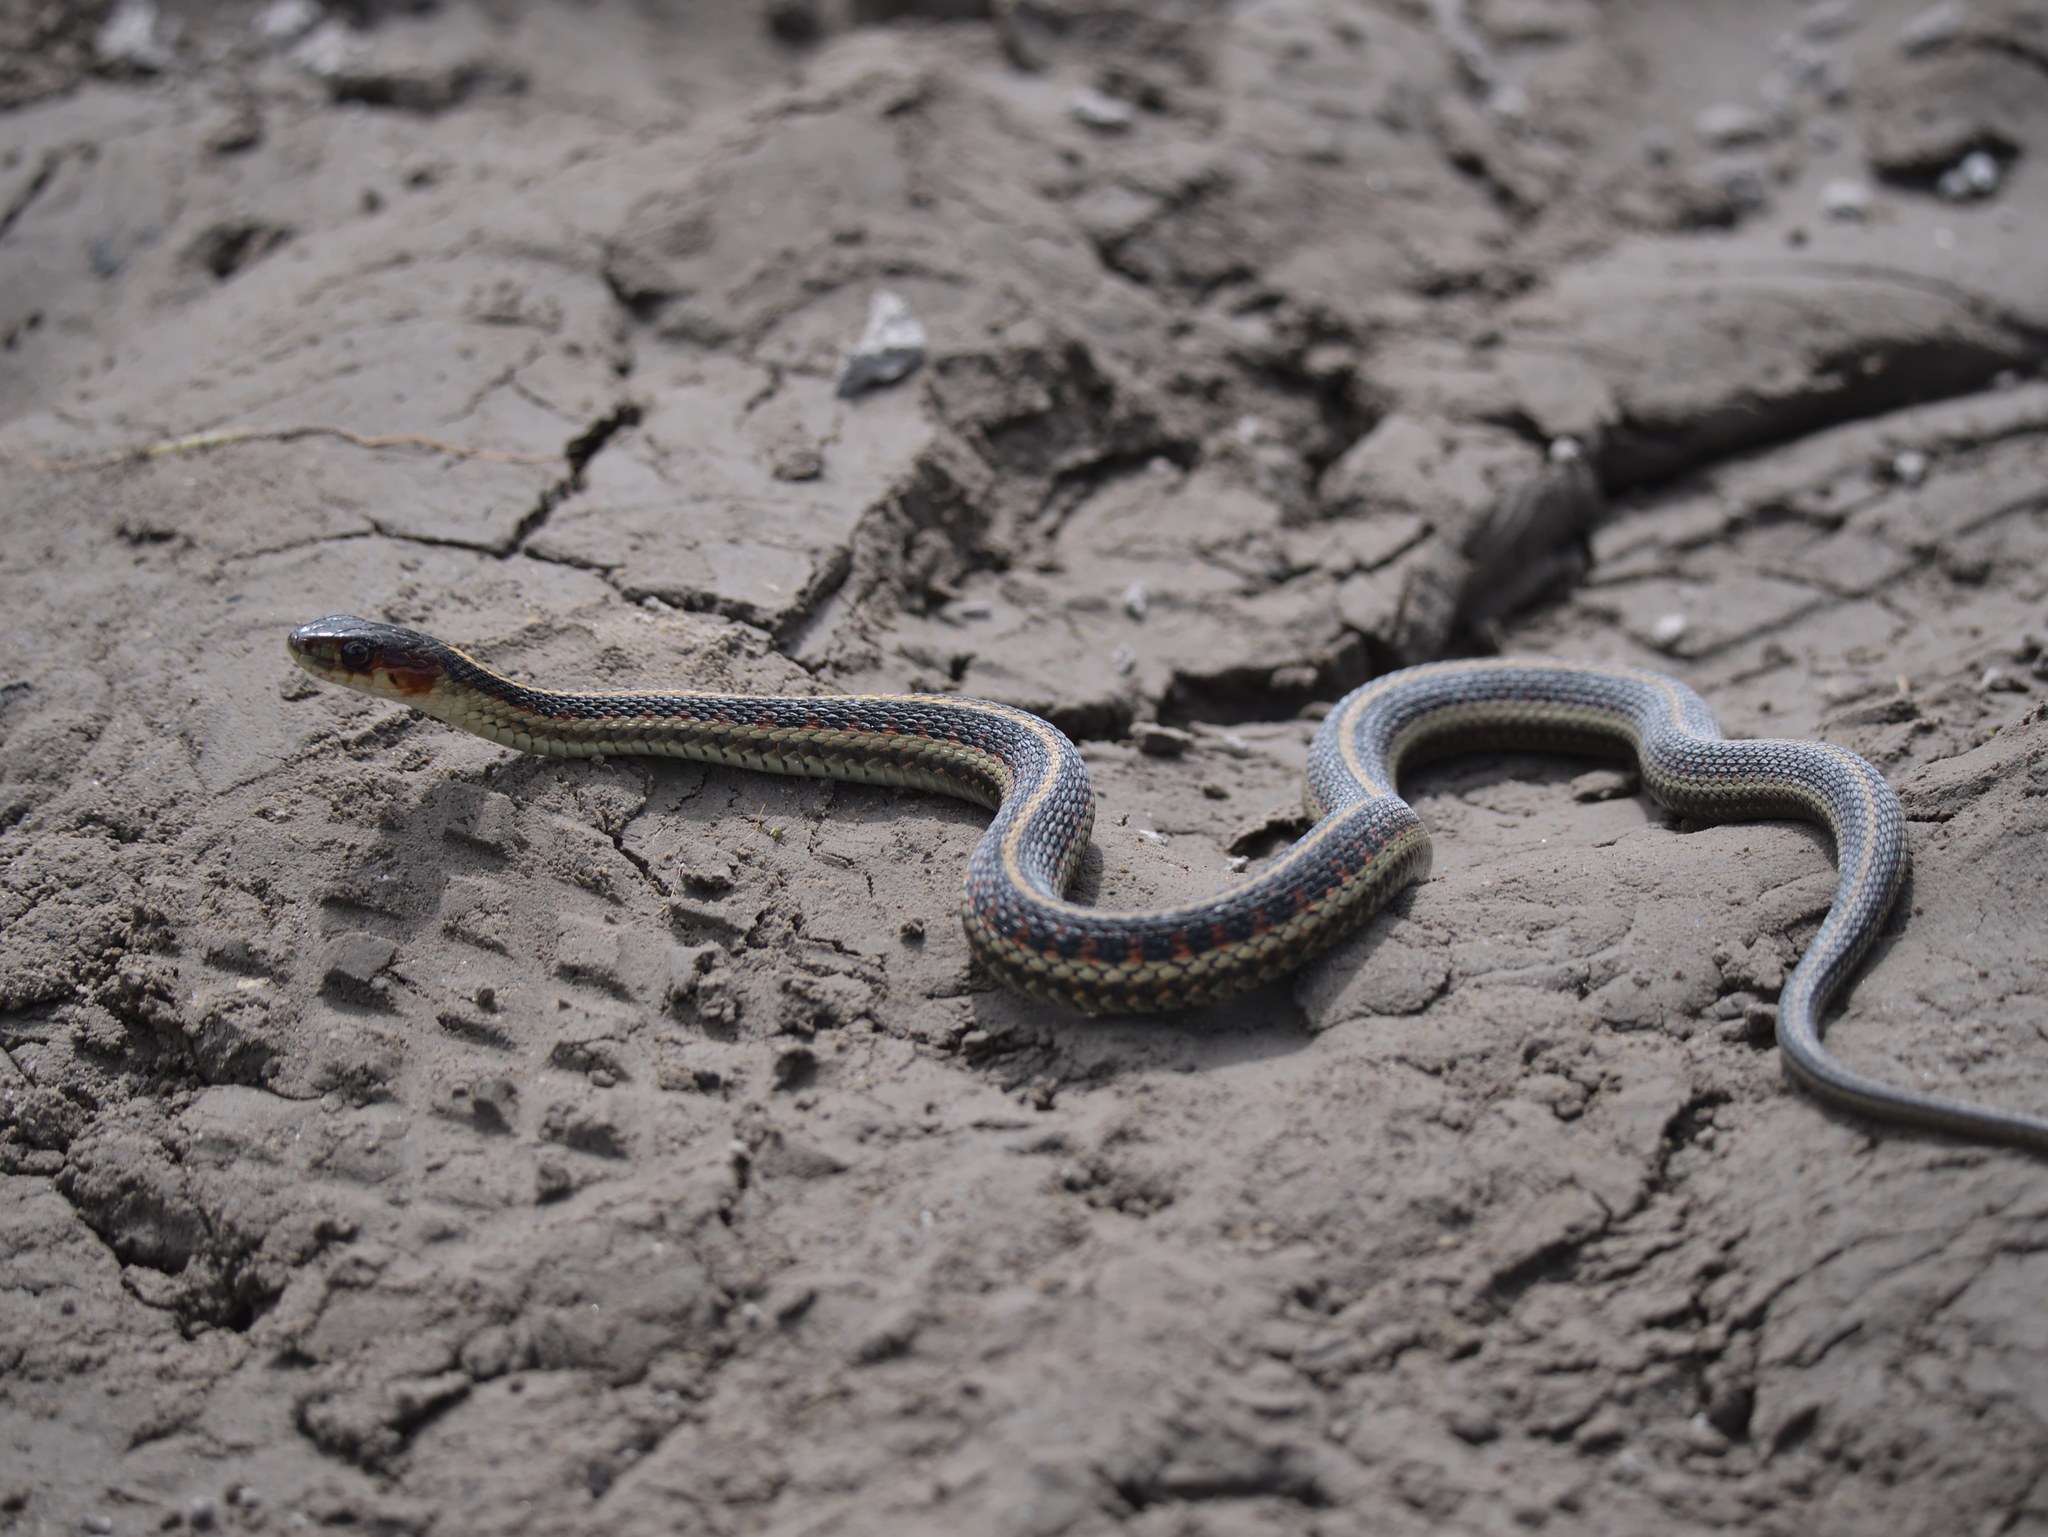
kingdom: Animalia
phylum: Chordata
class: Squamata
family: Colubridae
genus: Thamnophis
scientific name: Thamnophis sirtalis
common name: Common garter snake
